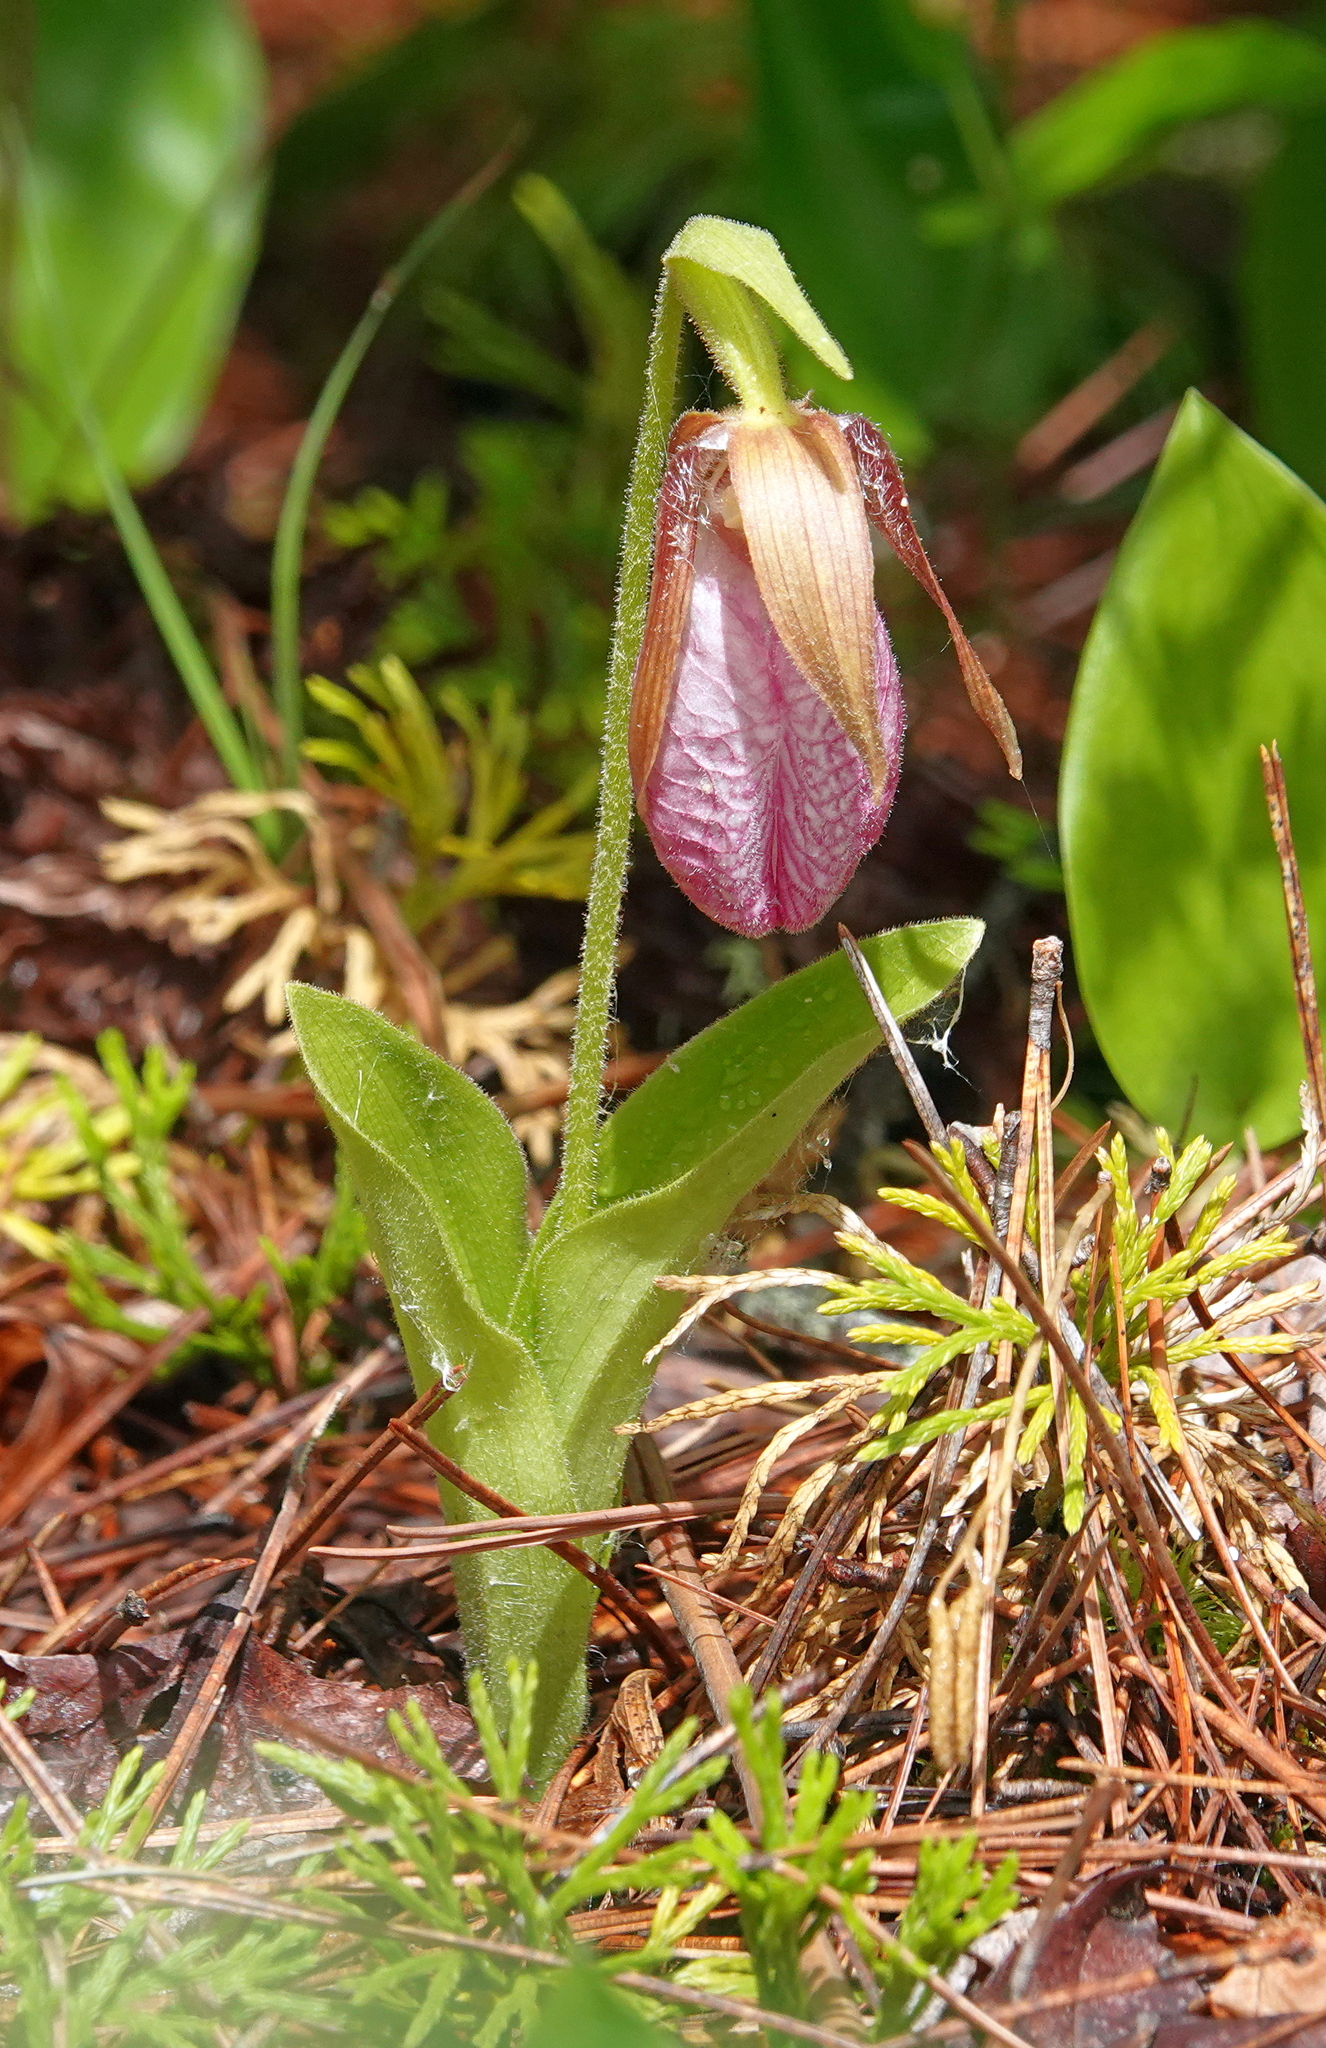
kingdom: Plantae
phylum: Tracheophyta
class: Liliopsida
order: Asparagales
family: Orchidaceae
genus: Cypripedium
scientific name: Cypripedium acaule
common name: Pink lady's-slipper
